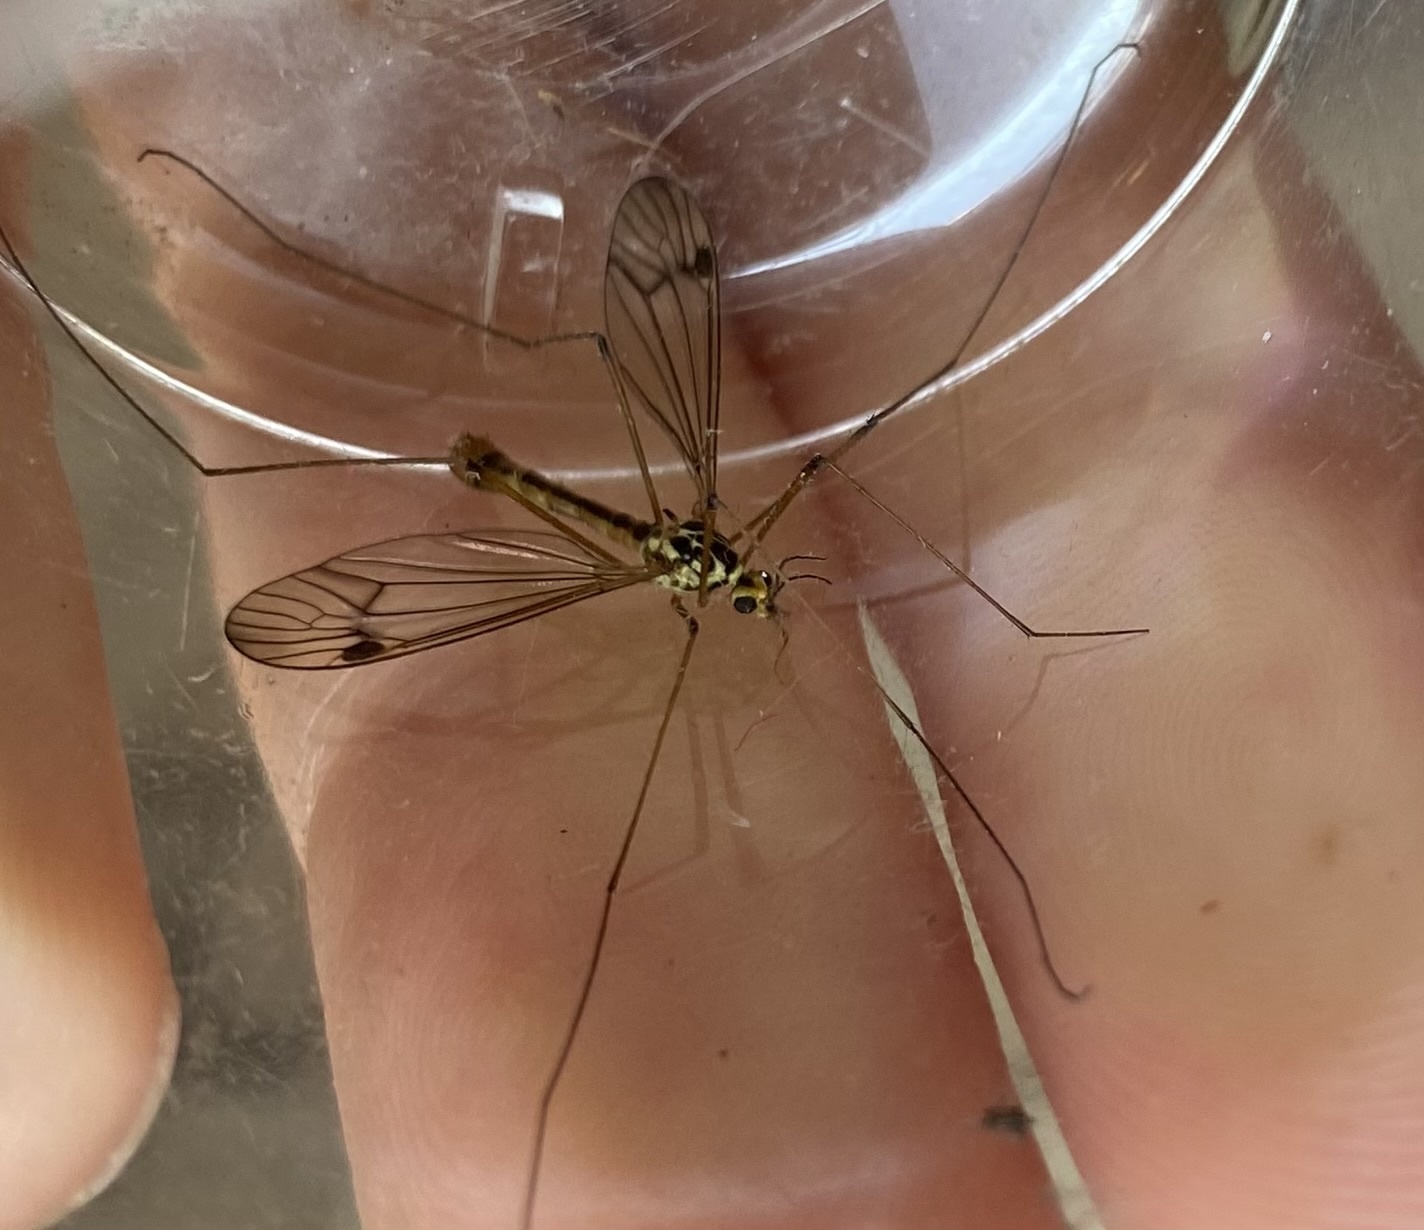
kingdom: Animalia
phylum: Arthropoda
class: Insecta
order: Diptera
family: Tipulidae
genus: Nephrotoma
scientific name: Nephrotoma quadrifaria
